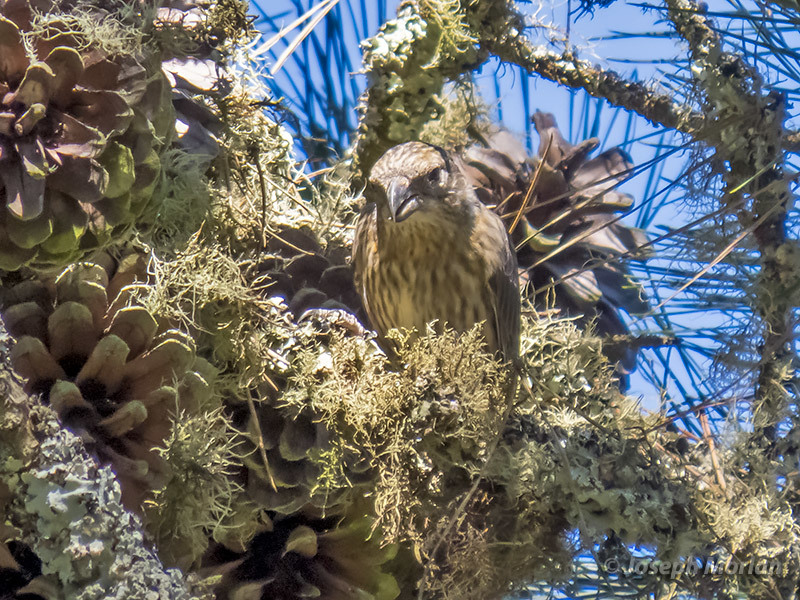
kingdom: Animalia
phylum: Chordata
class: Aves
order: Passeriformes
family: Fringillidae
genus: Loxia
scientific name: Loxia curvirostra
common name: Red crossbill
